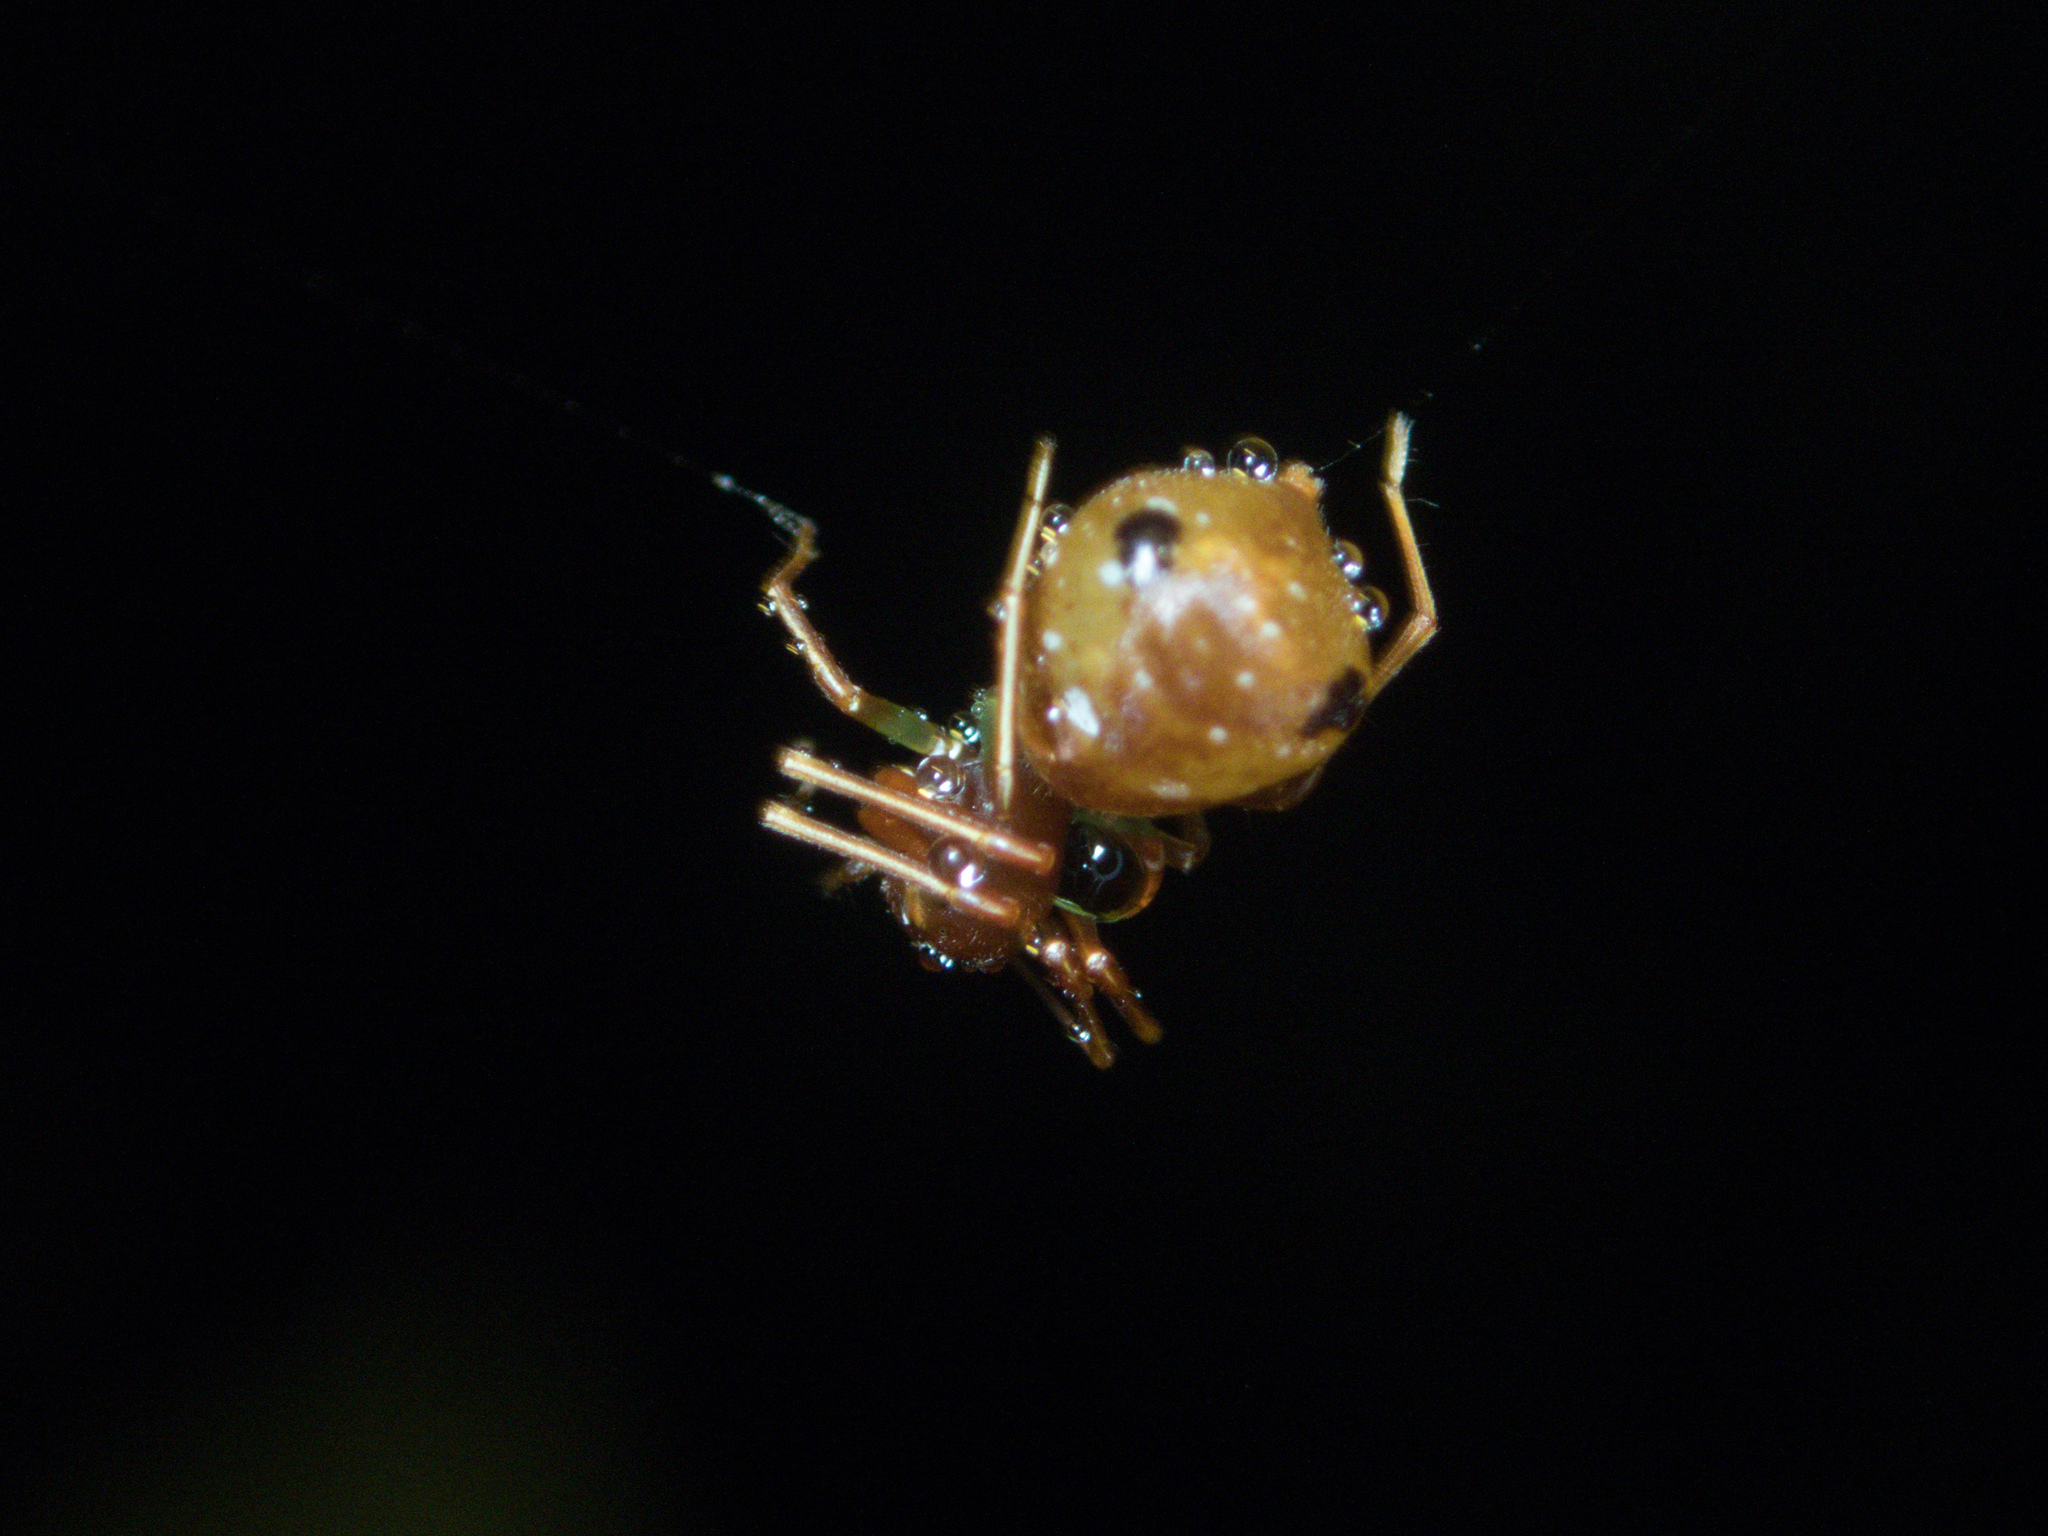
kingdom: Animalia
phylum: Arthropoda
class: Arachnida
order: Araneae
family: Thomisidae
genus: Amyciaea
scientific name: Amyciaea forticeps
